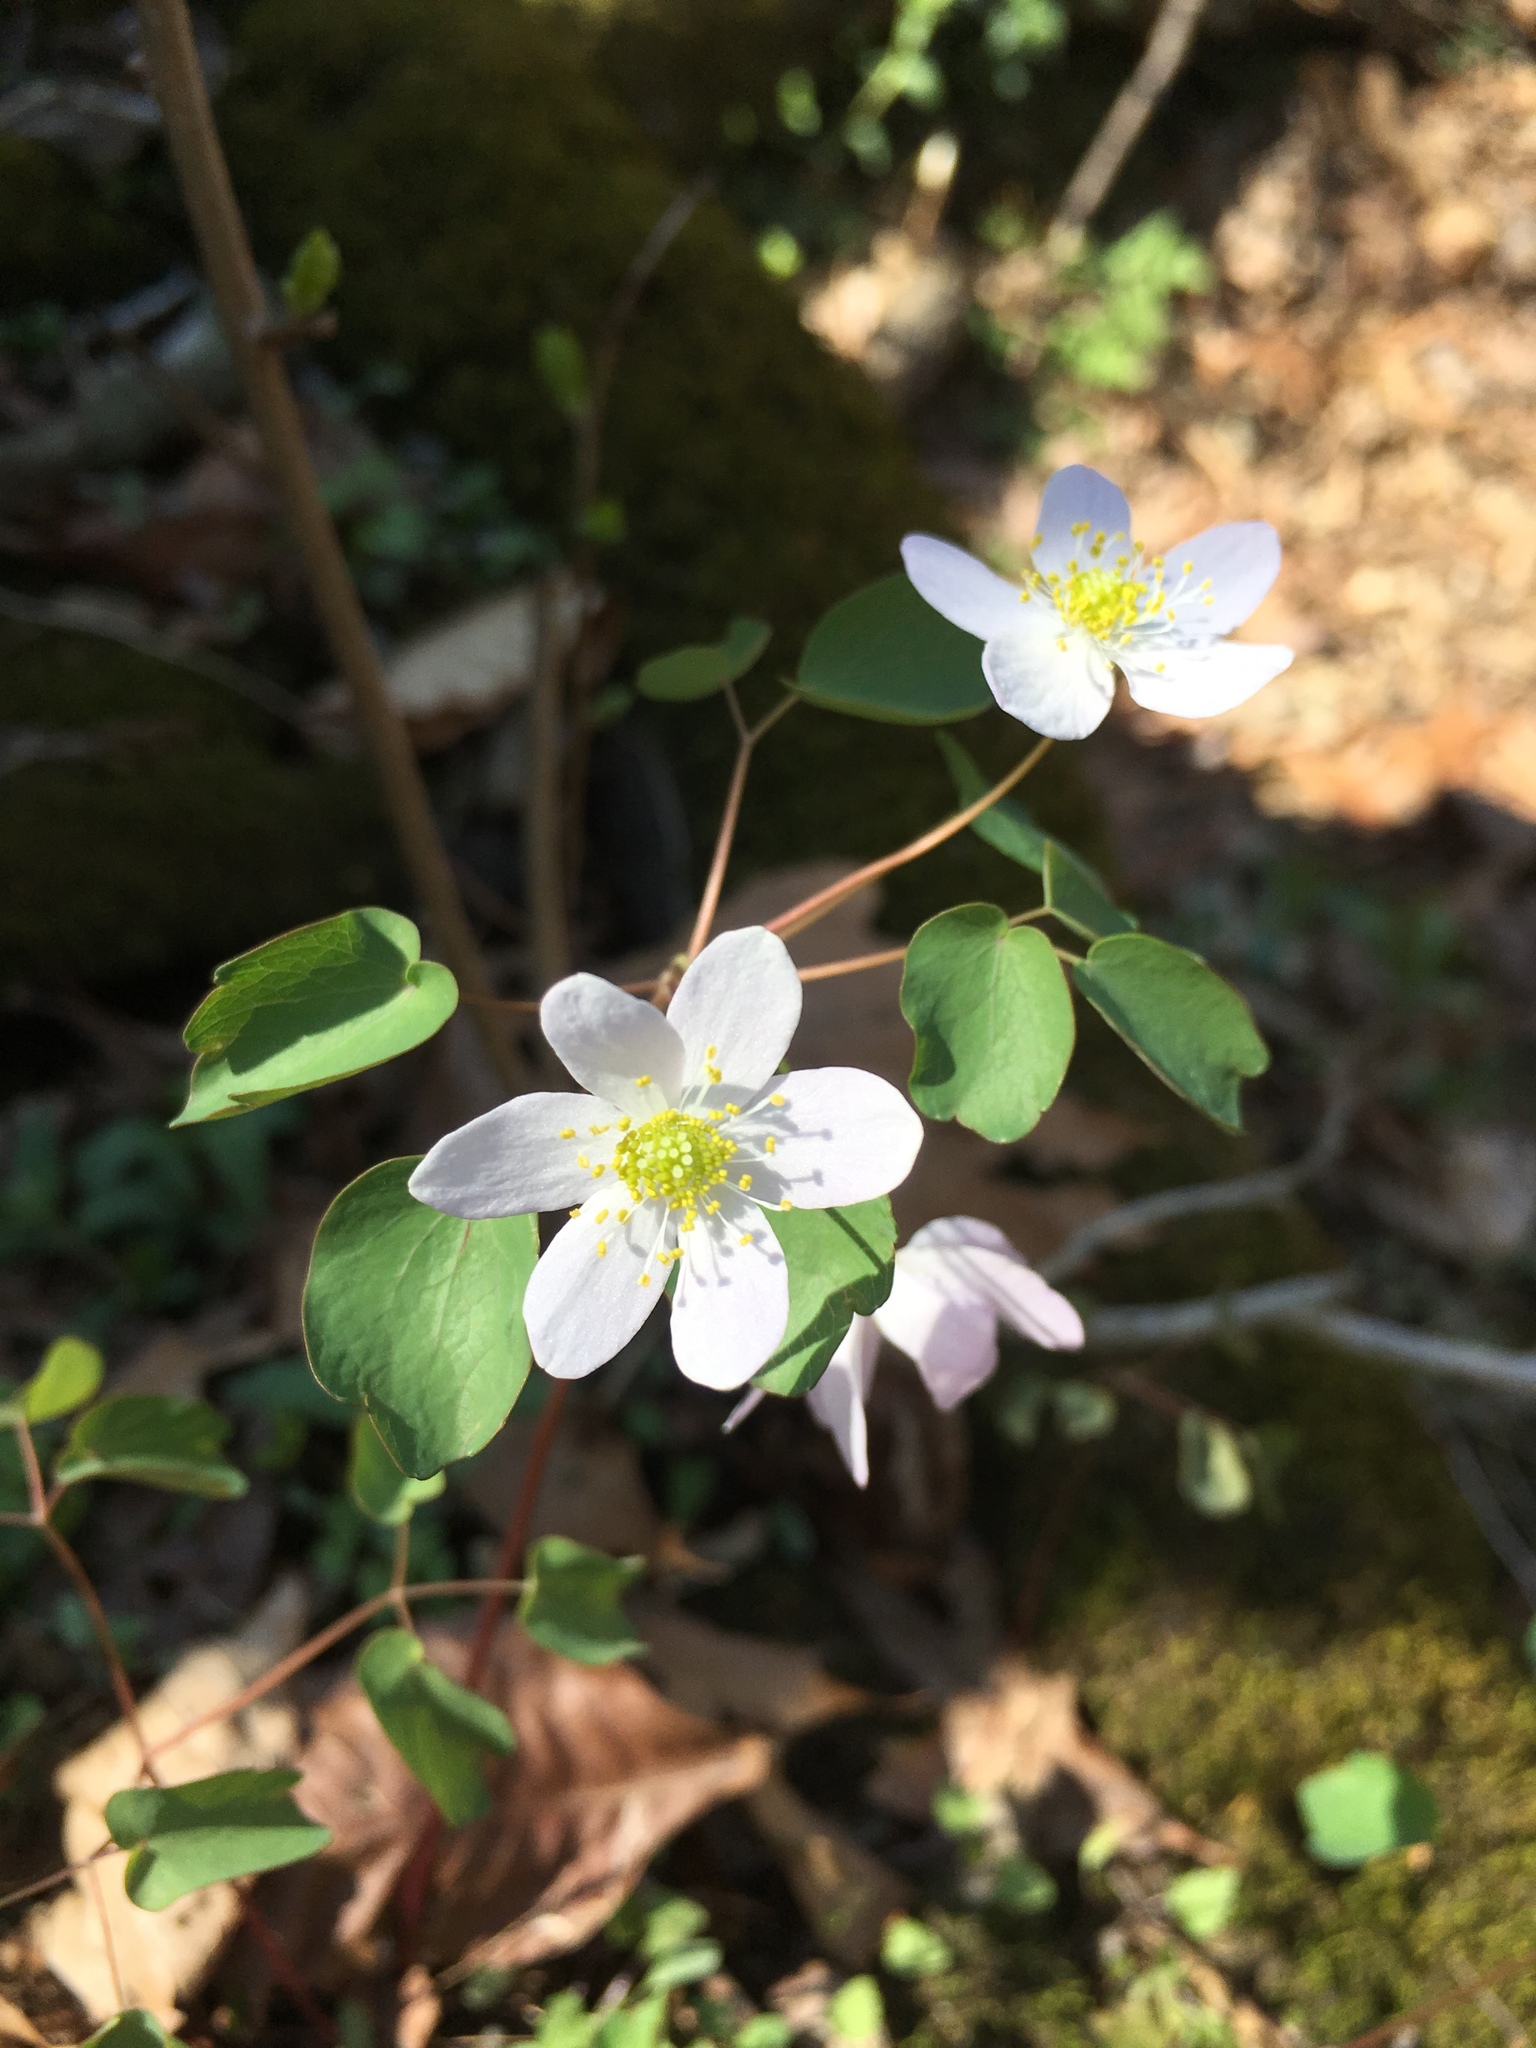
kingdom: Plantae
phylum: Tracheophyta
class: Magnoliopsida
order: Ranunculales
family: Ranunculaceae
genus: Thalictrum
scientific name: Thalictrum thalictroides
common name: Rue-anemone
